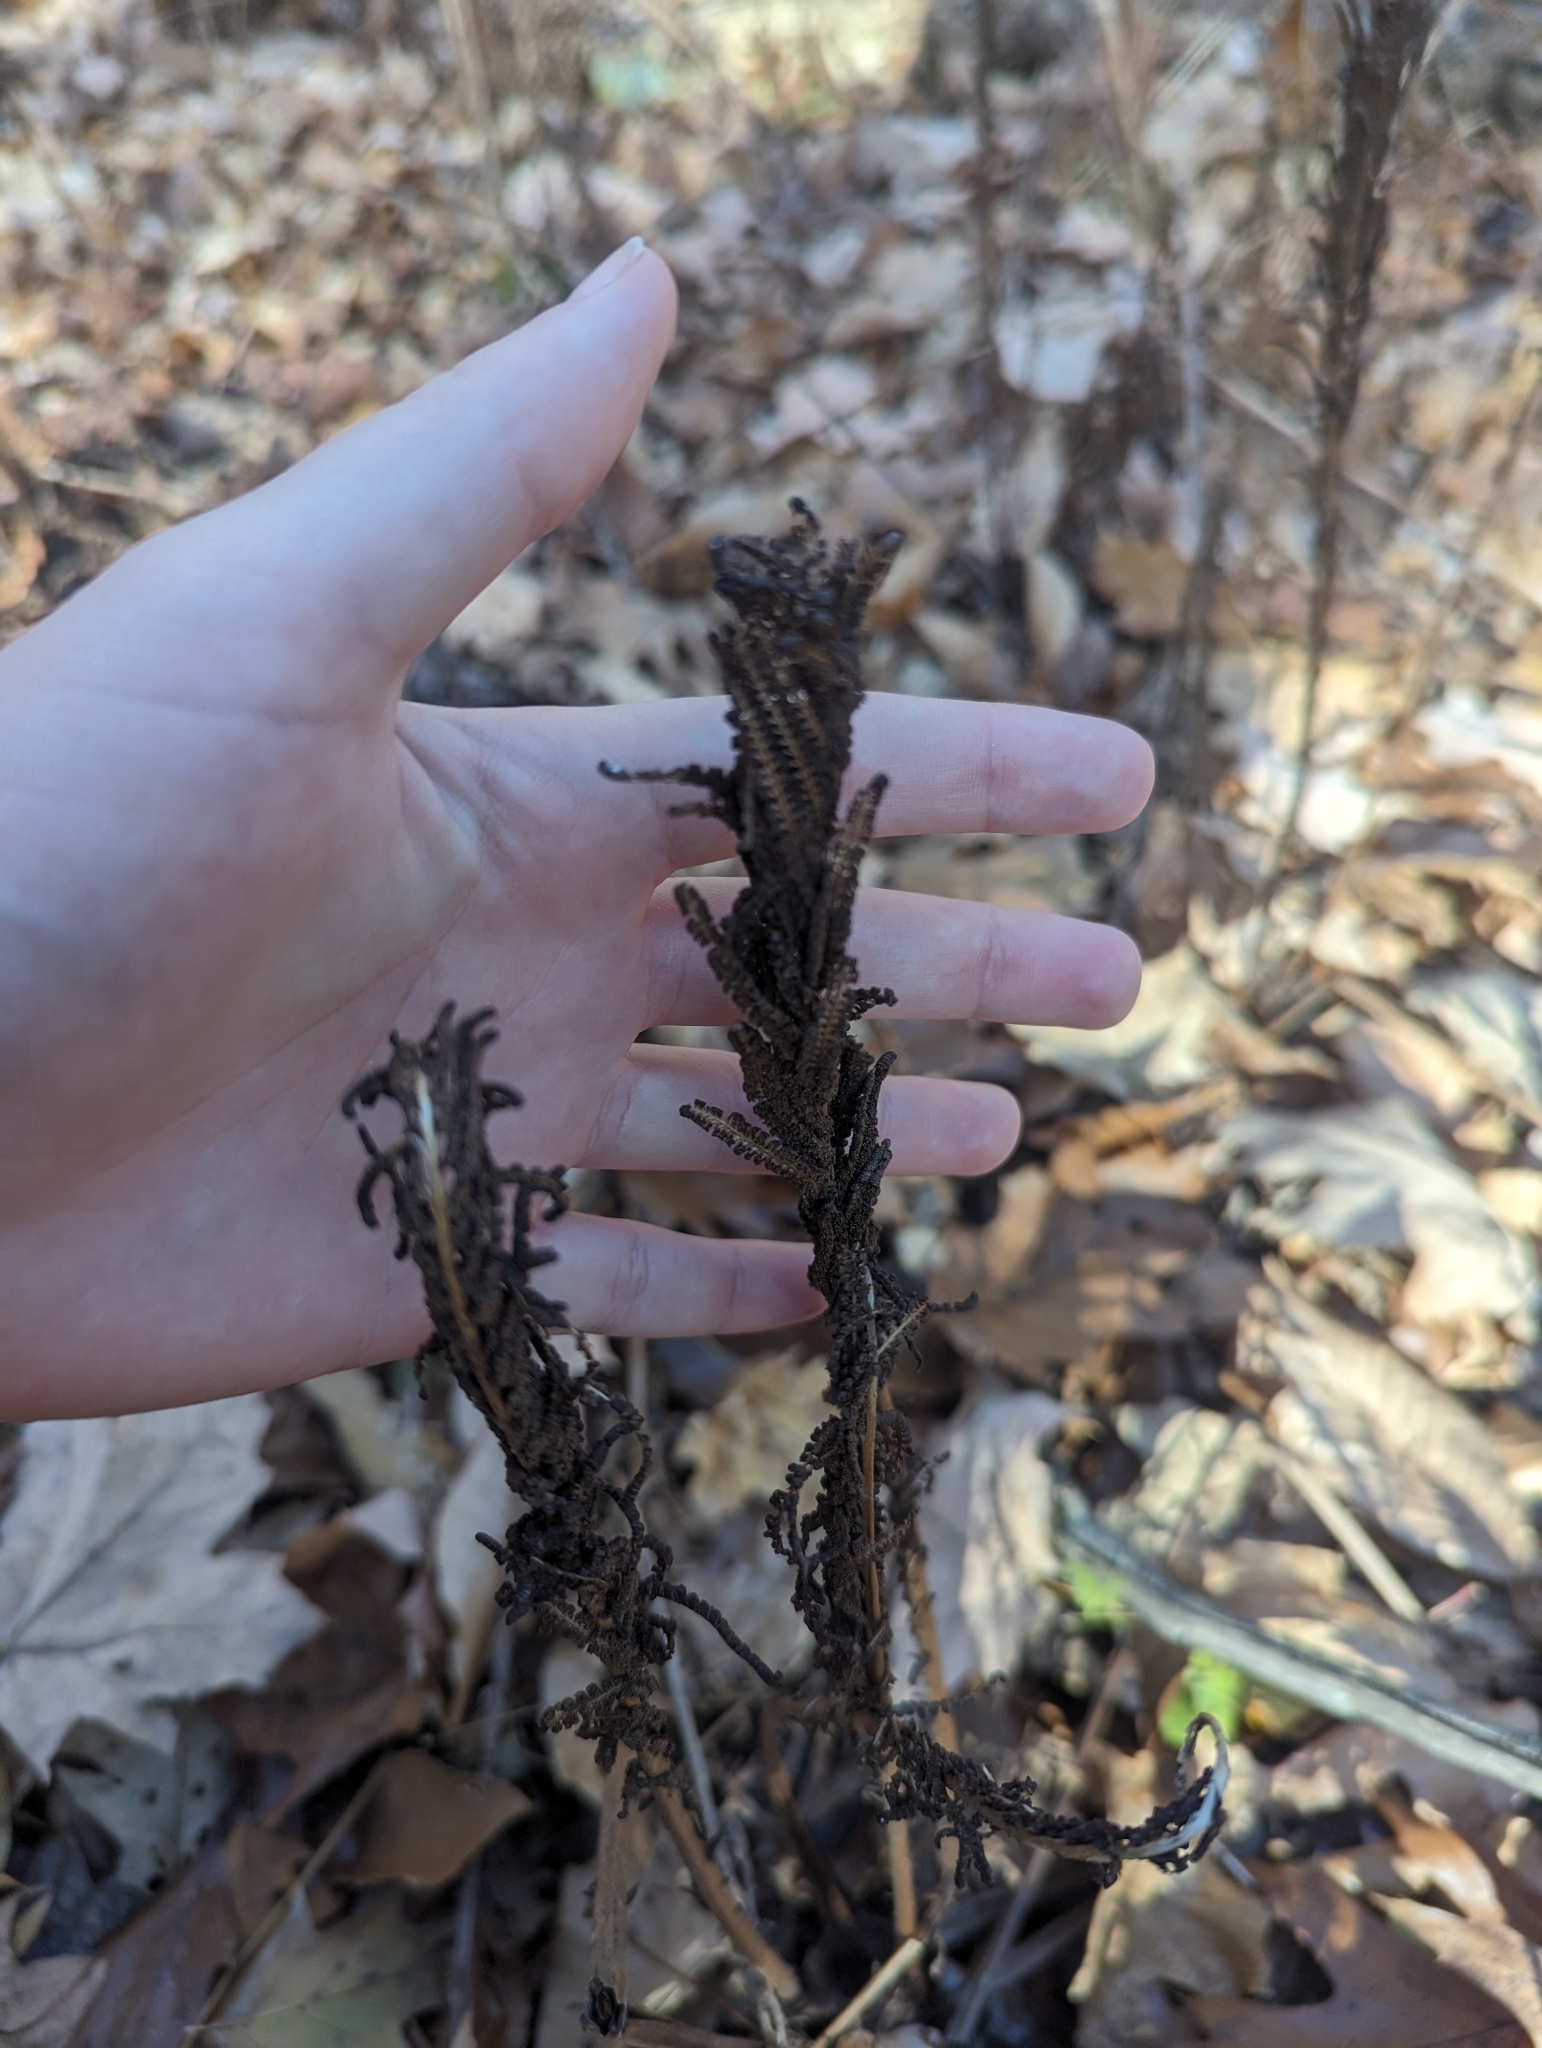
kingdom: Plantae
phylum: Tracheophyta
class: Polypodiopsida
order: Polypodiales
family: Onocleaceae
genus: Matteuccia
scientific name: Matteuccia struthiopteris
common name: Ostrich fern
